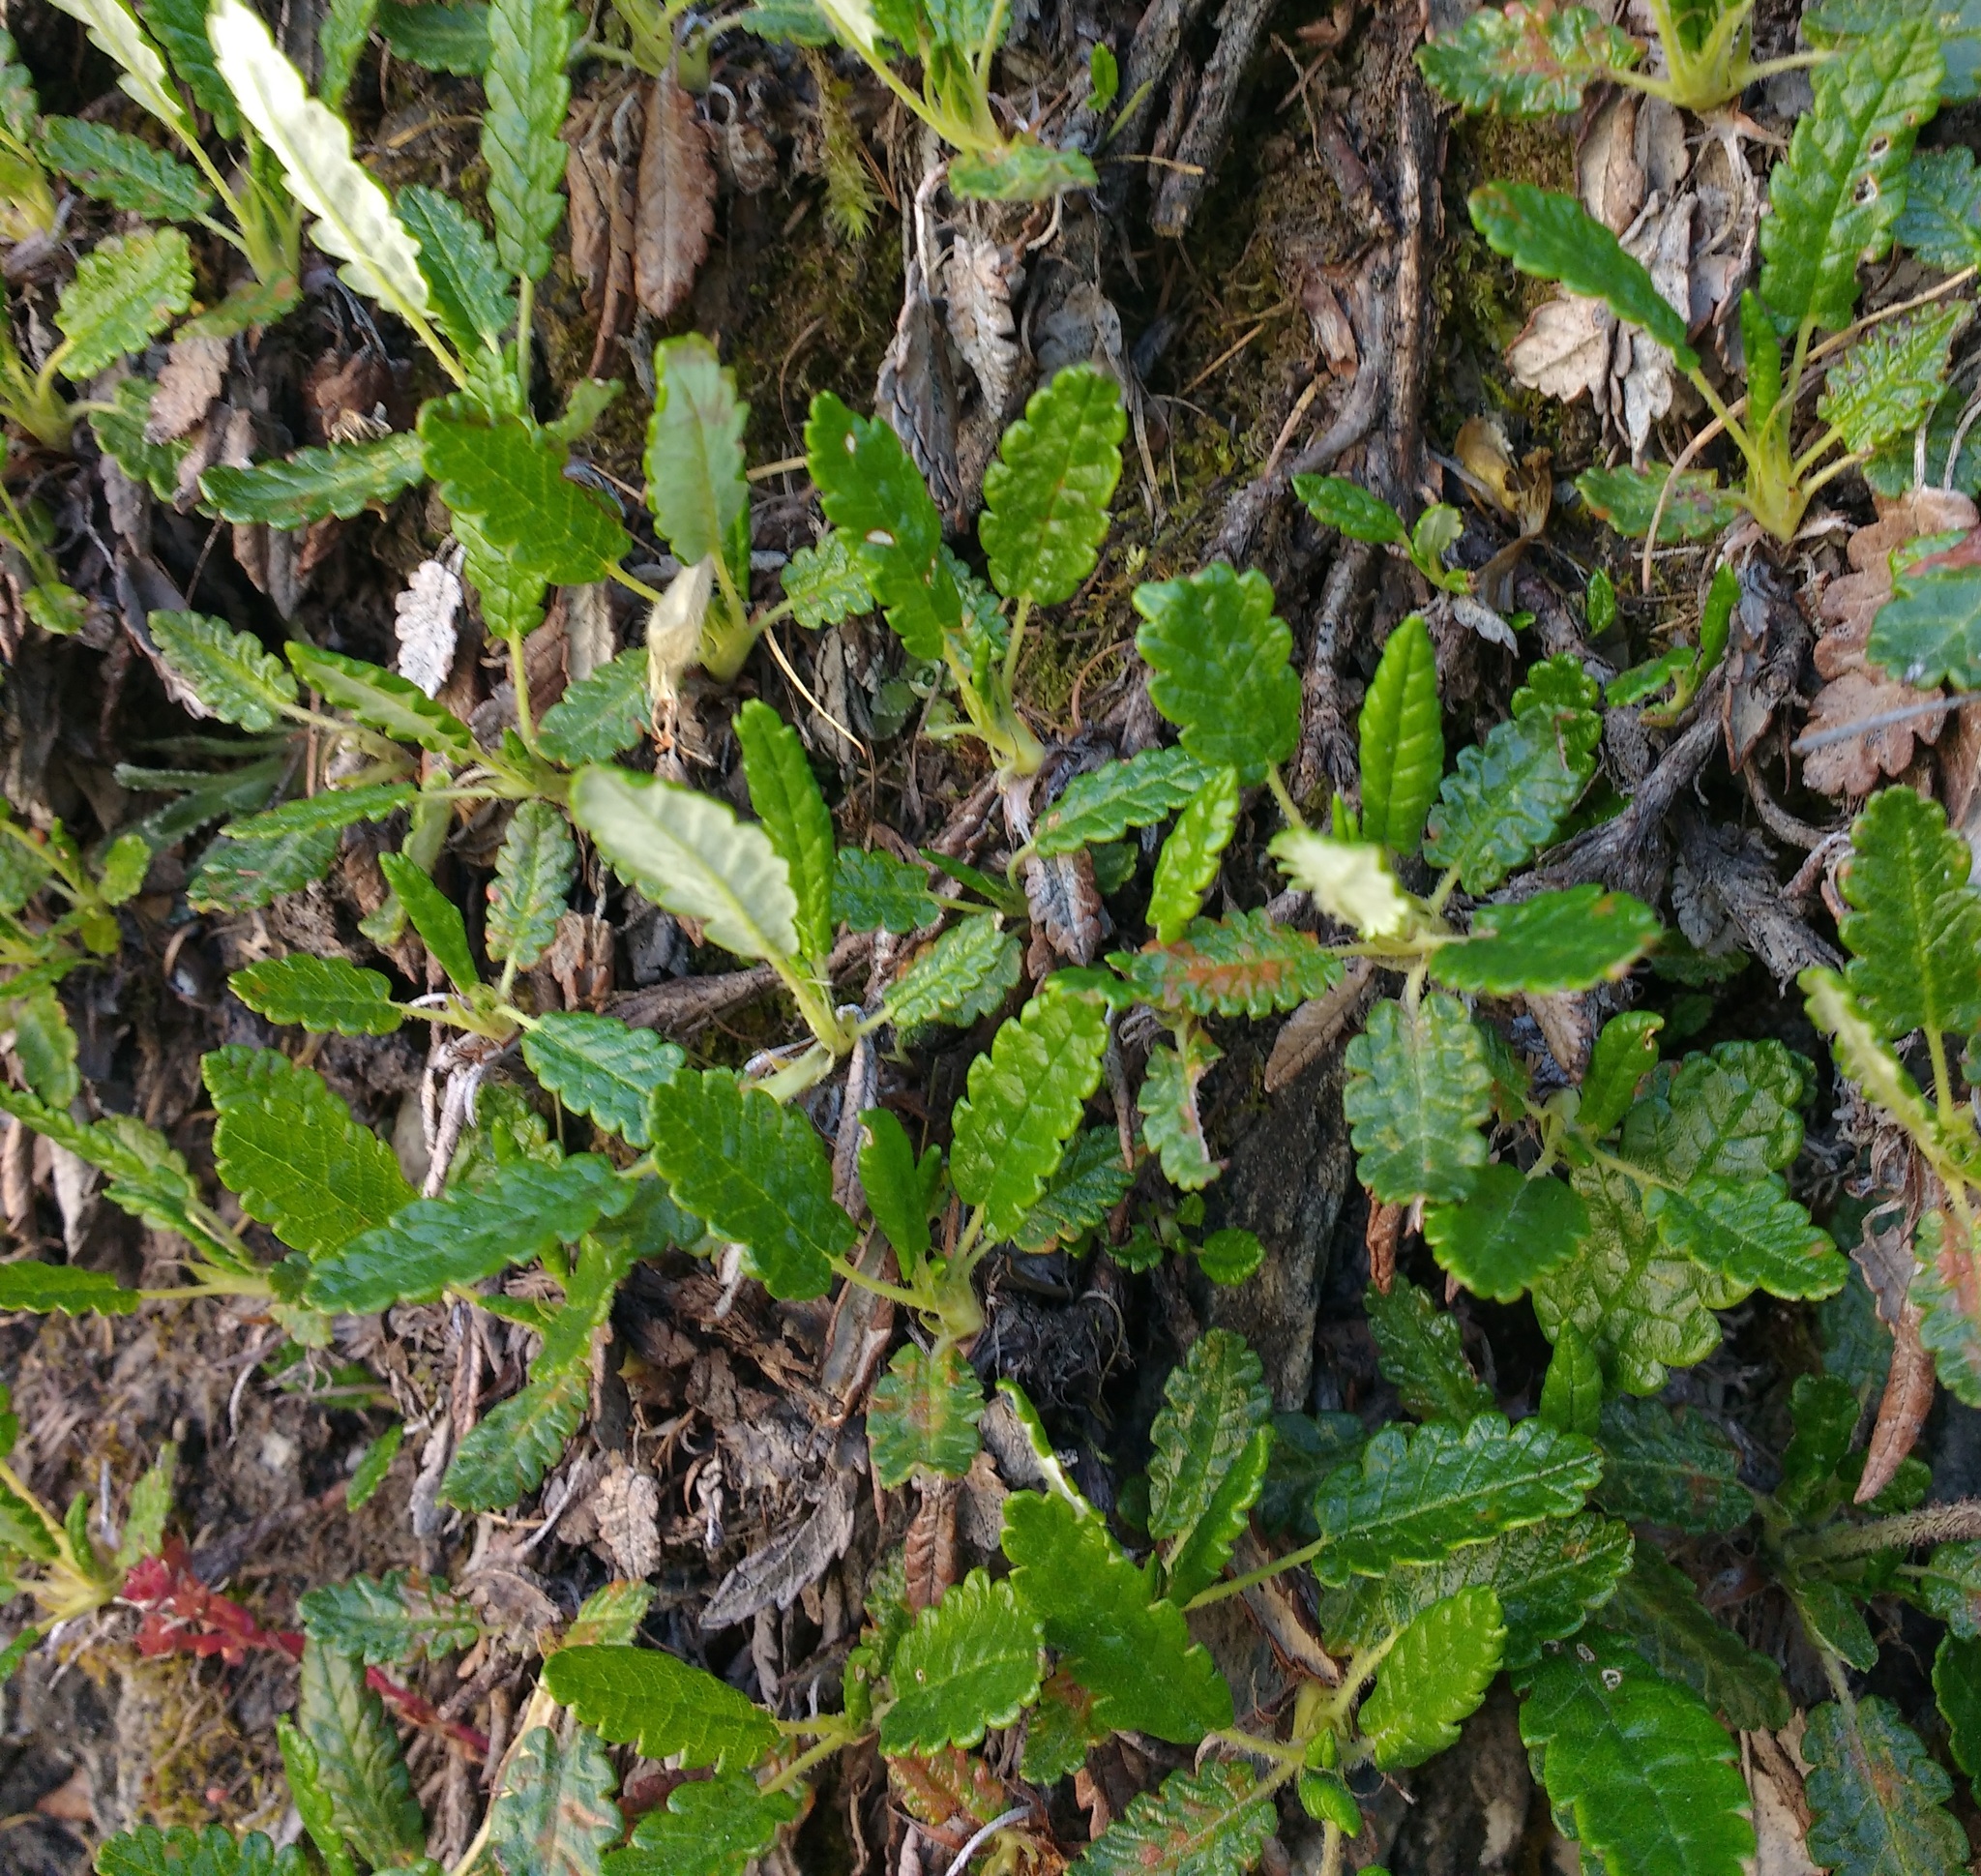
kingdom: Plantae
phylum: Tracheophyta
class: Magnoliopsida
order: Rosales
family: Rosaceae
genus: Dryas
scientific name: Dryas octopetala
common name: Eight-petal mountain-avens
